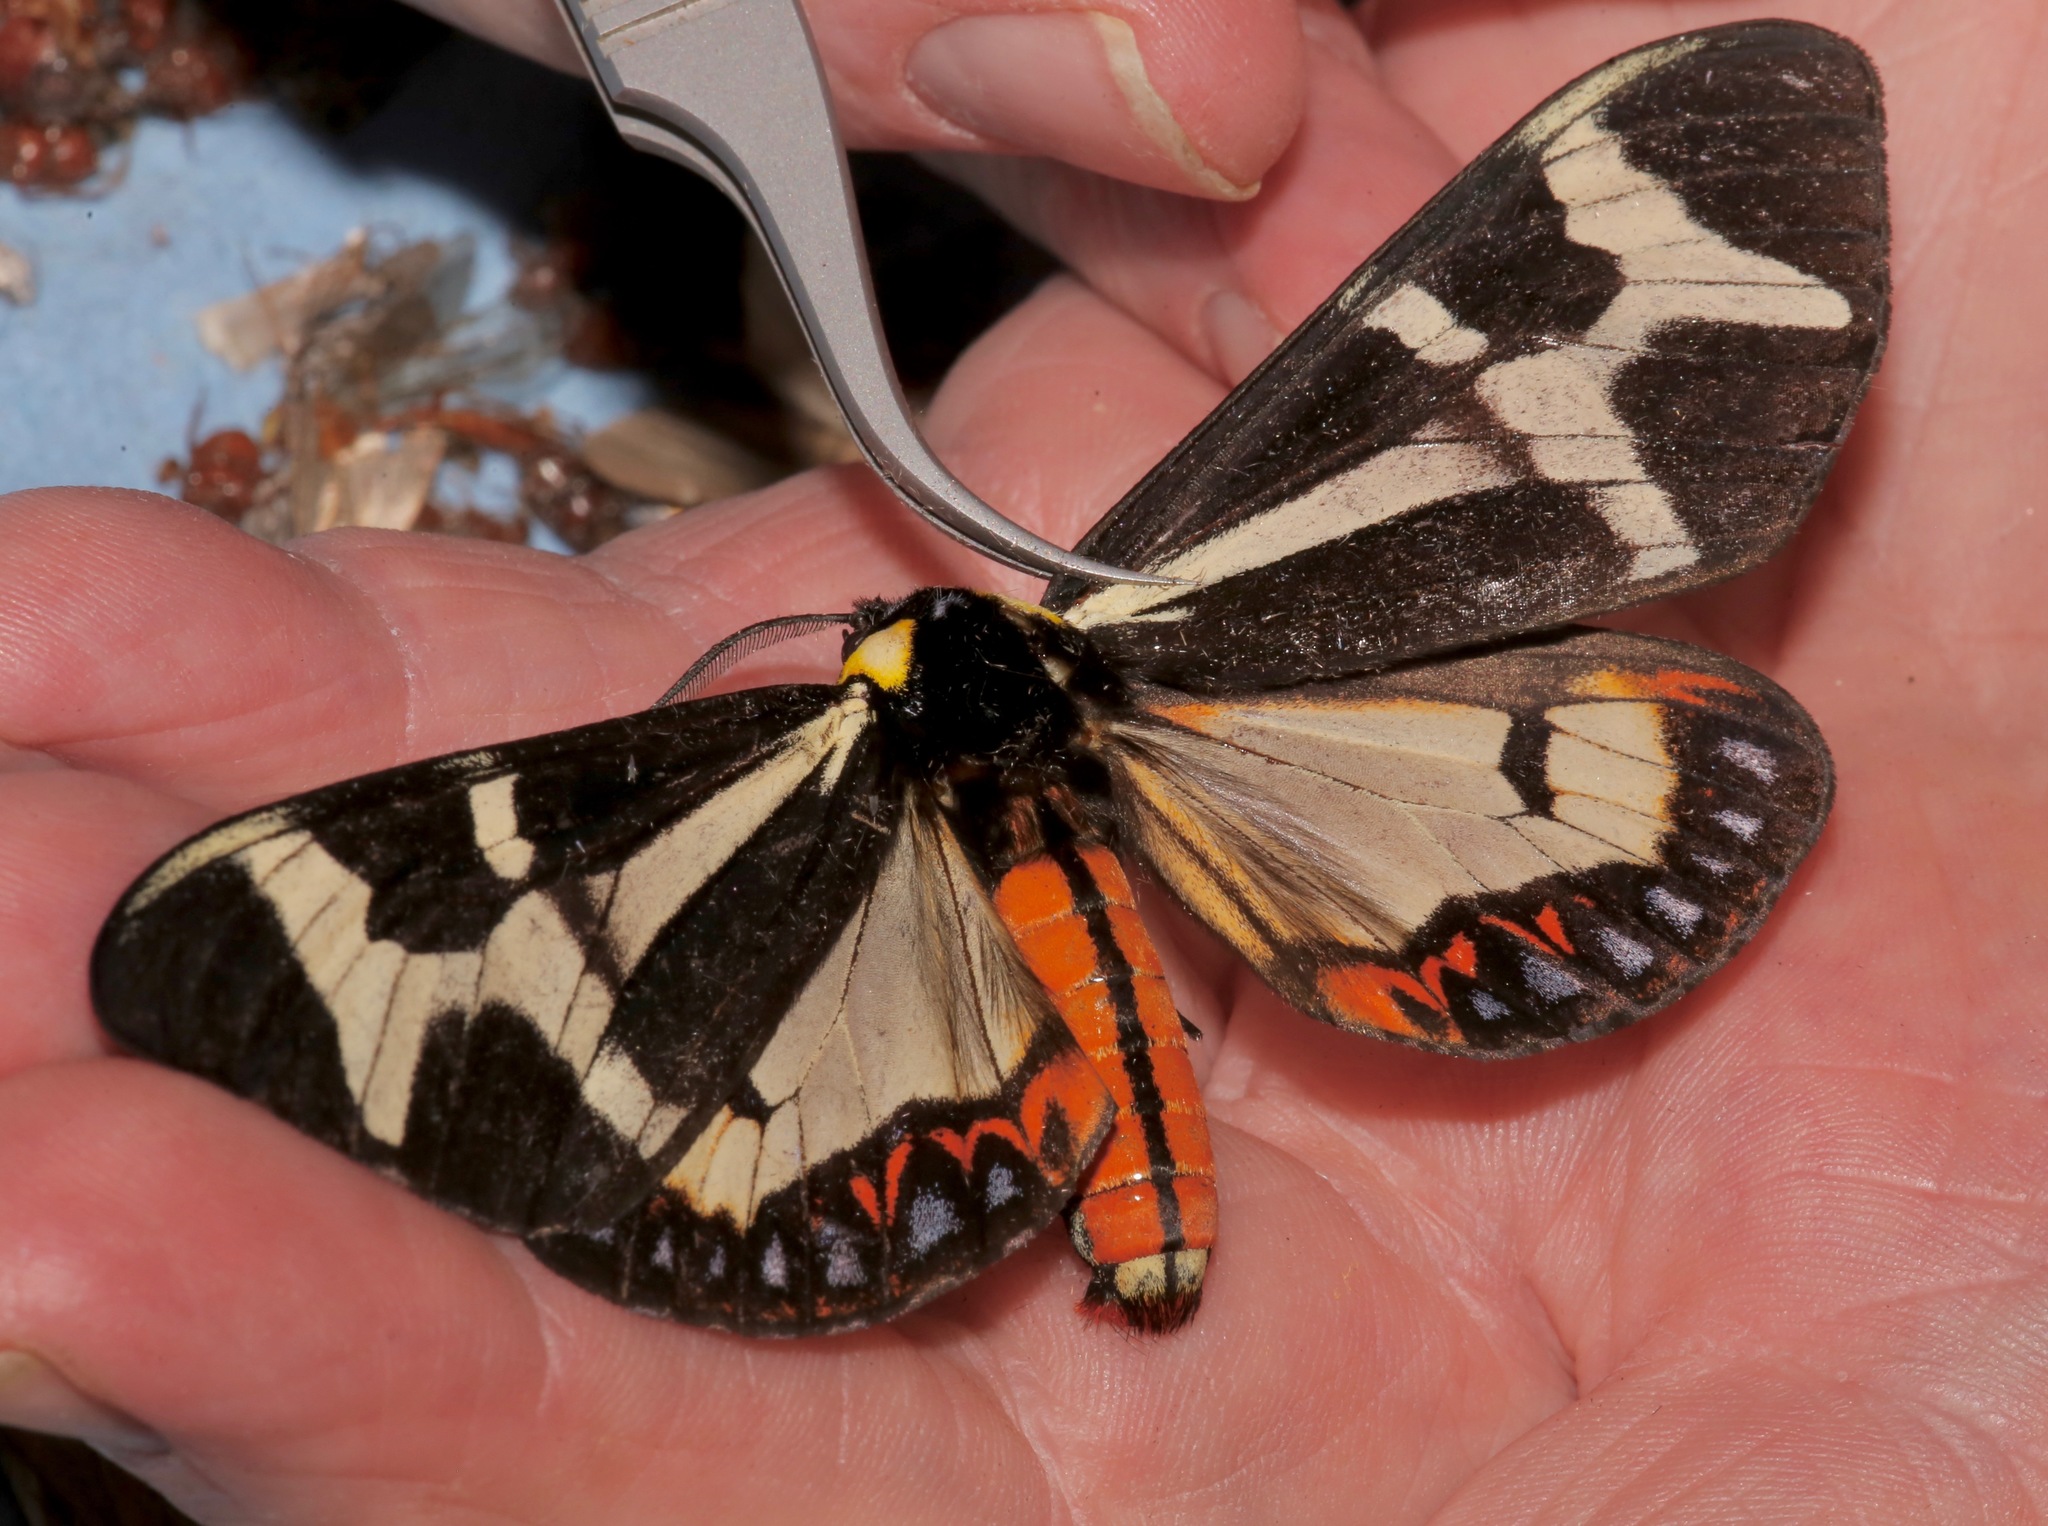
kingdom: Animalia
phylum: Arthropoda
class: Insecta
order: Lepidoptera
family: Erebidae
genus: Dysschema
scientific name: Dysschema howardi
